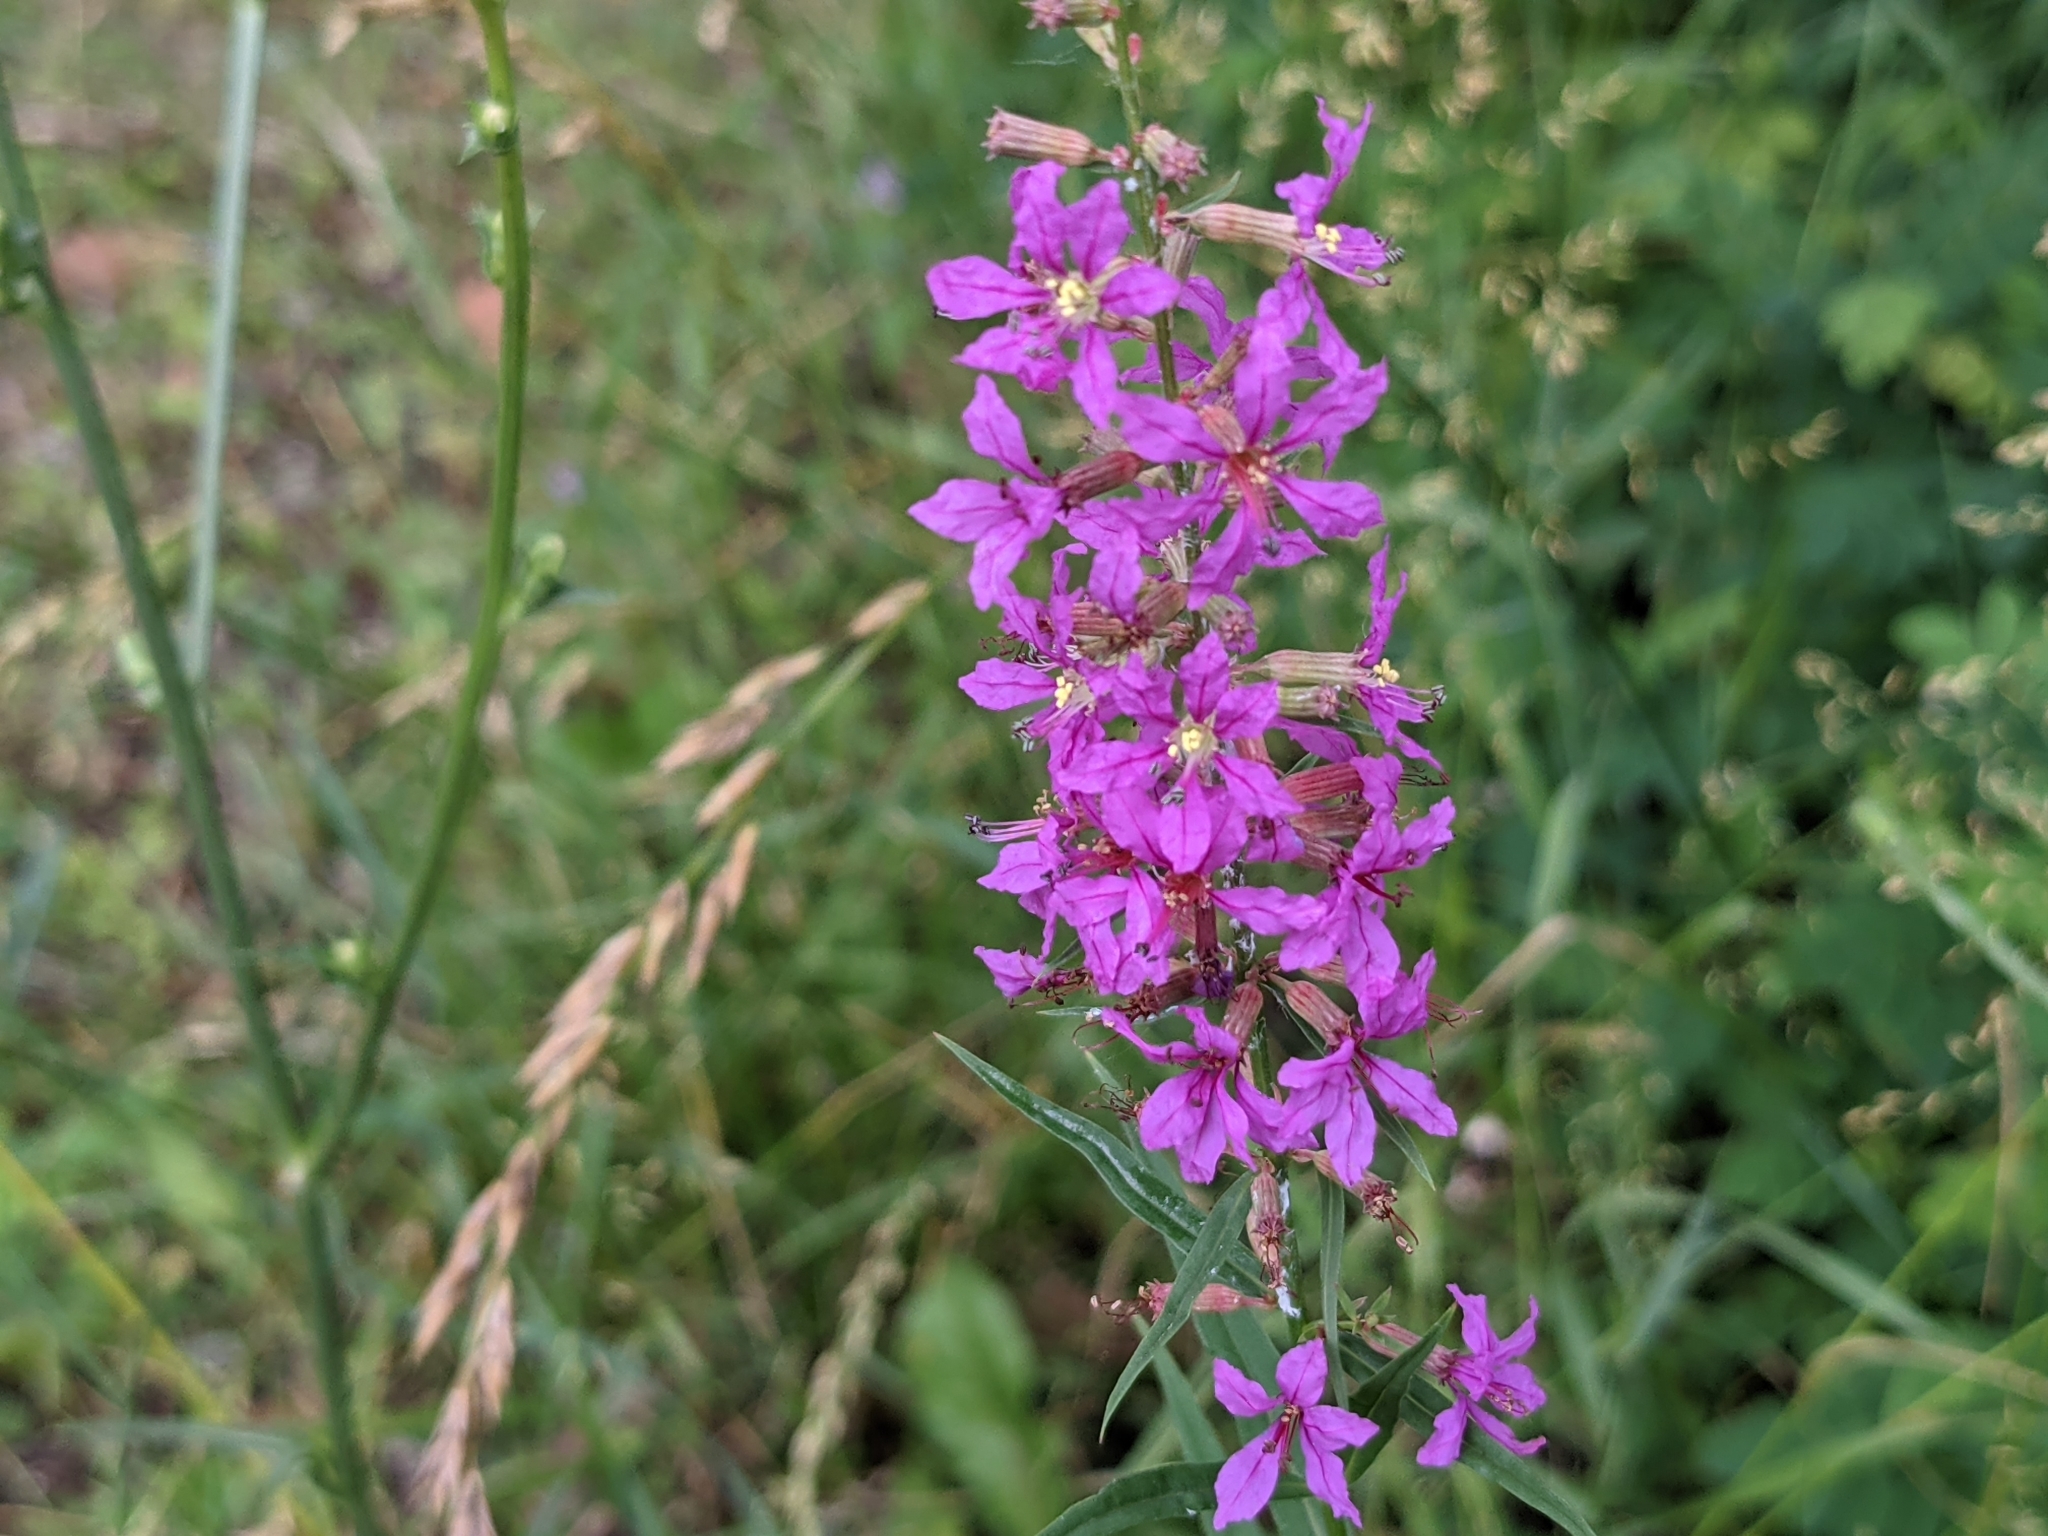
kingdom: Plantae
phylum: Tracheophyta
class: Magnoliopsida
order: Myrtales
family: Lythraceae
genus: Lythrum
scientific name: Lythrum salicaria
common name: Purple loosestrife
